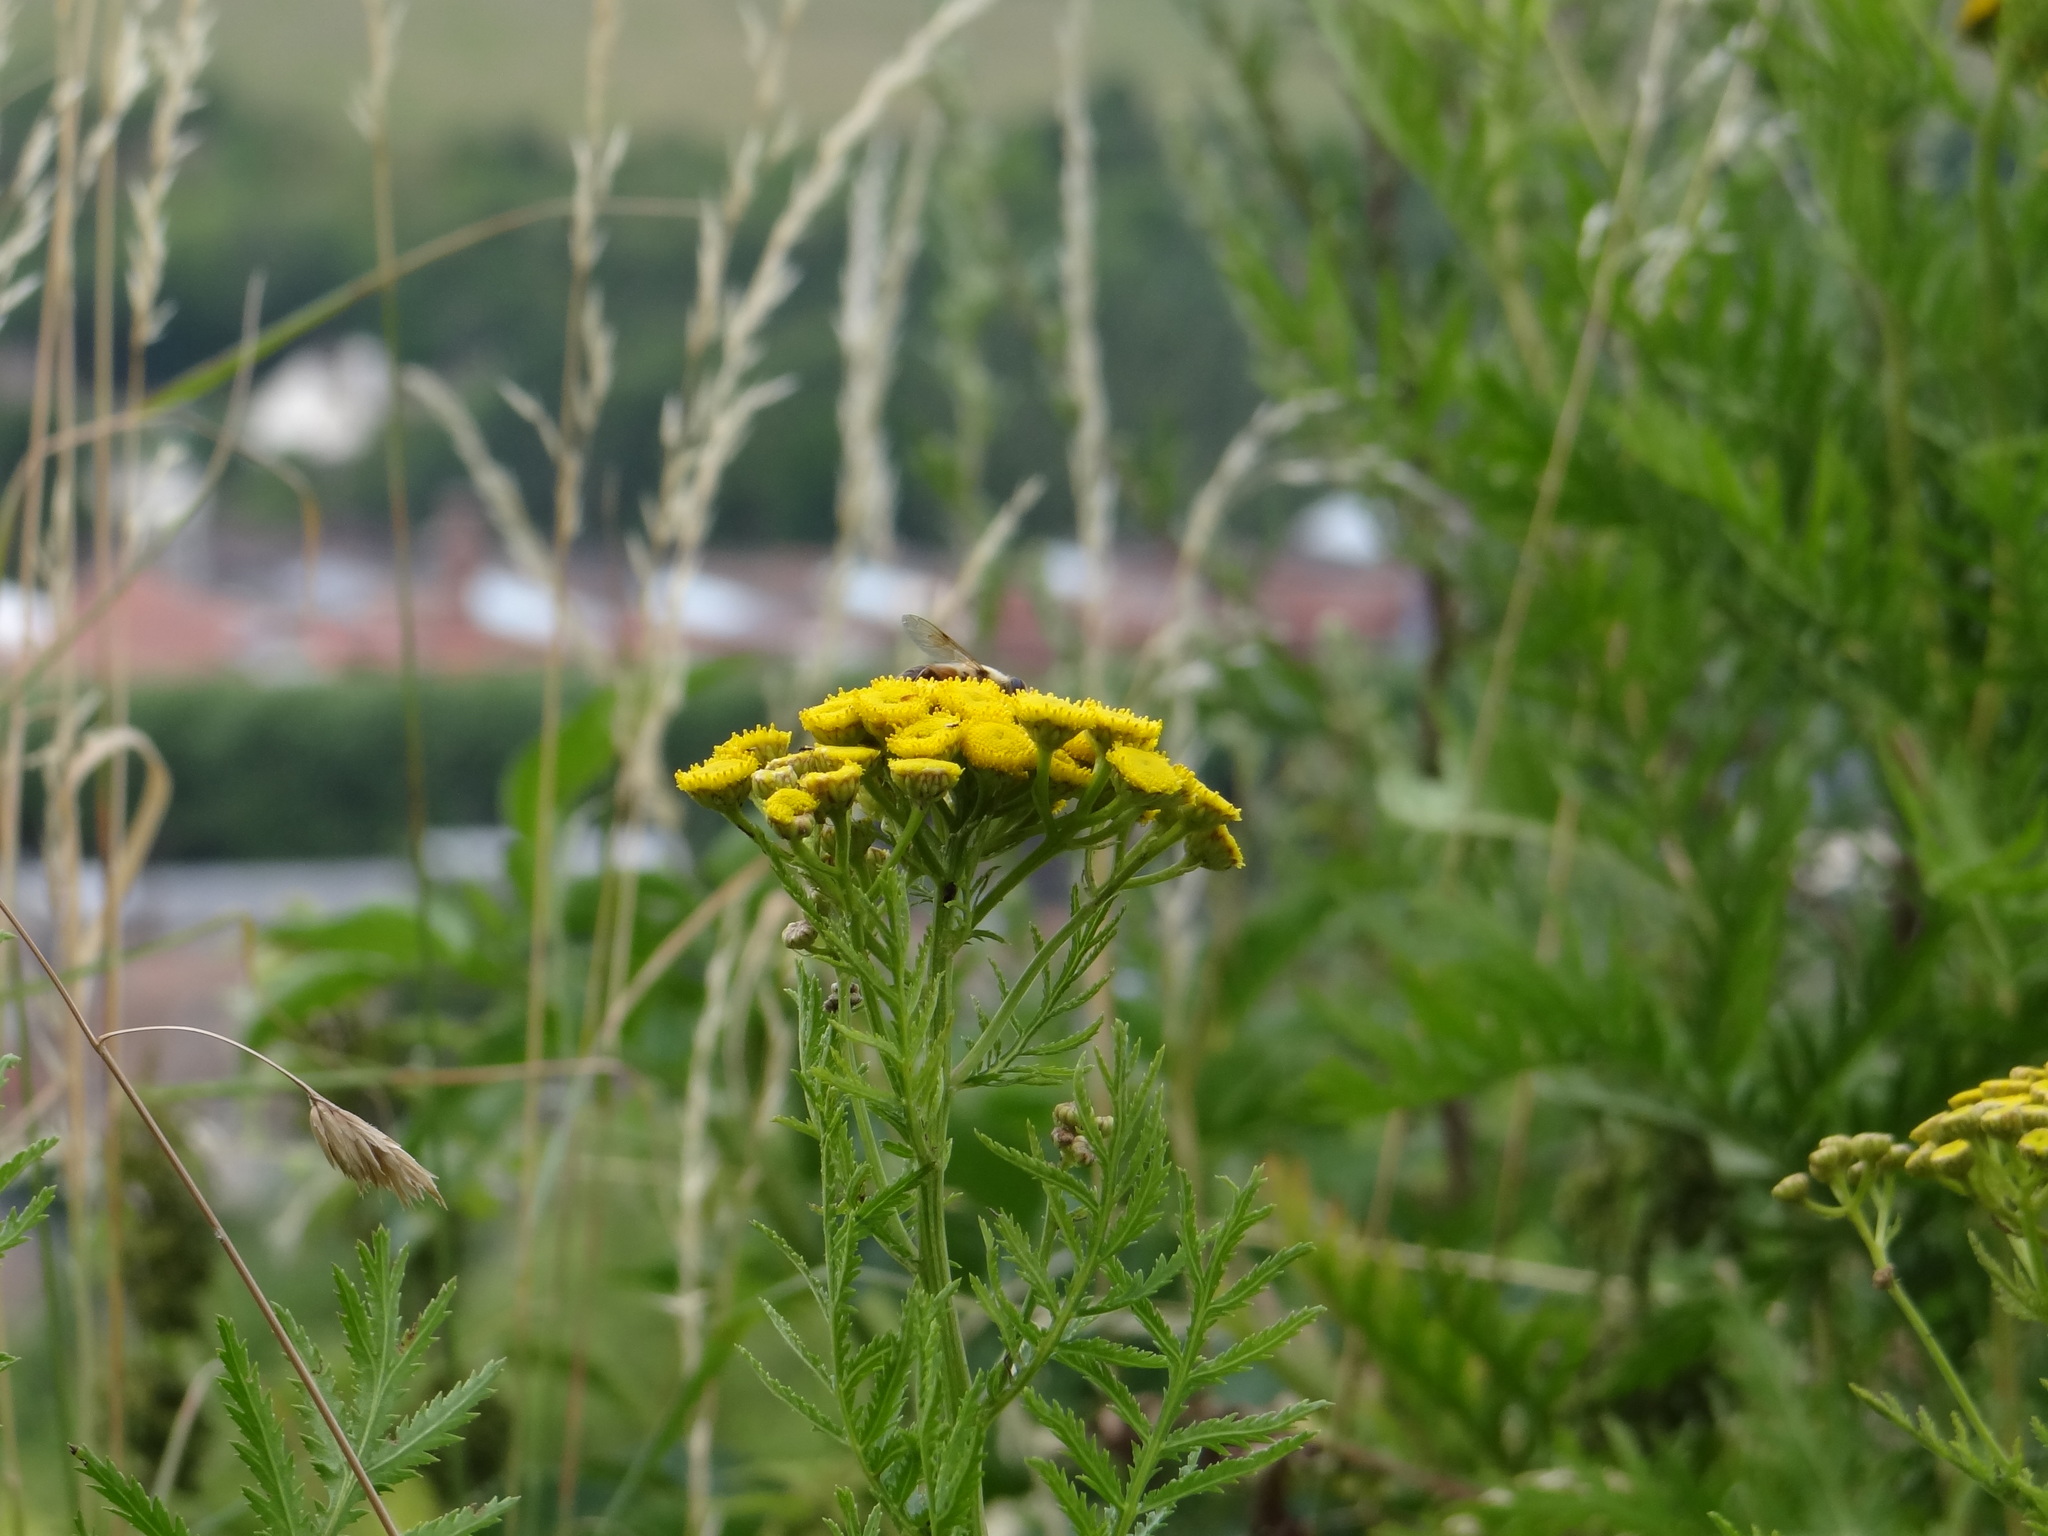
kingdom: Plantae
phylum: Tracheophyta
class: Magnoliopsida
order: Asterales
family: Asteraceae
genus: Tanacetum
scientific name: Tanacetum vulgare
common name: Common tansy
